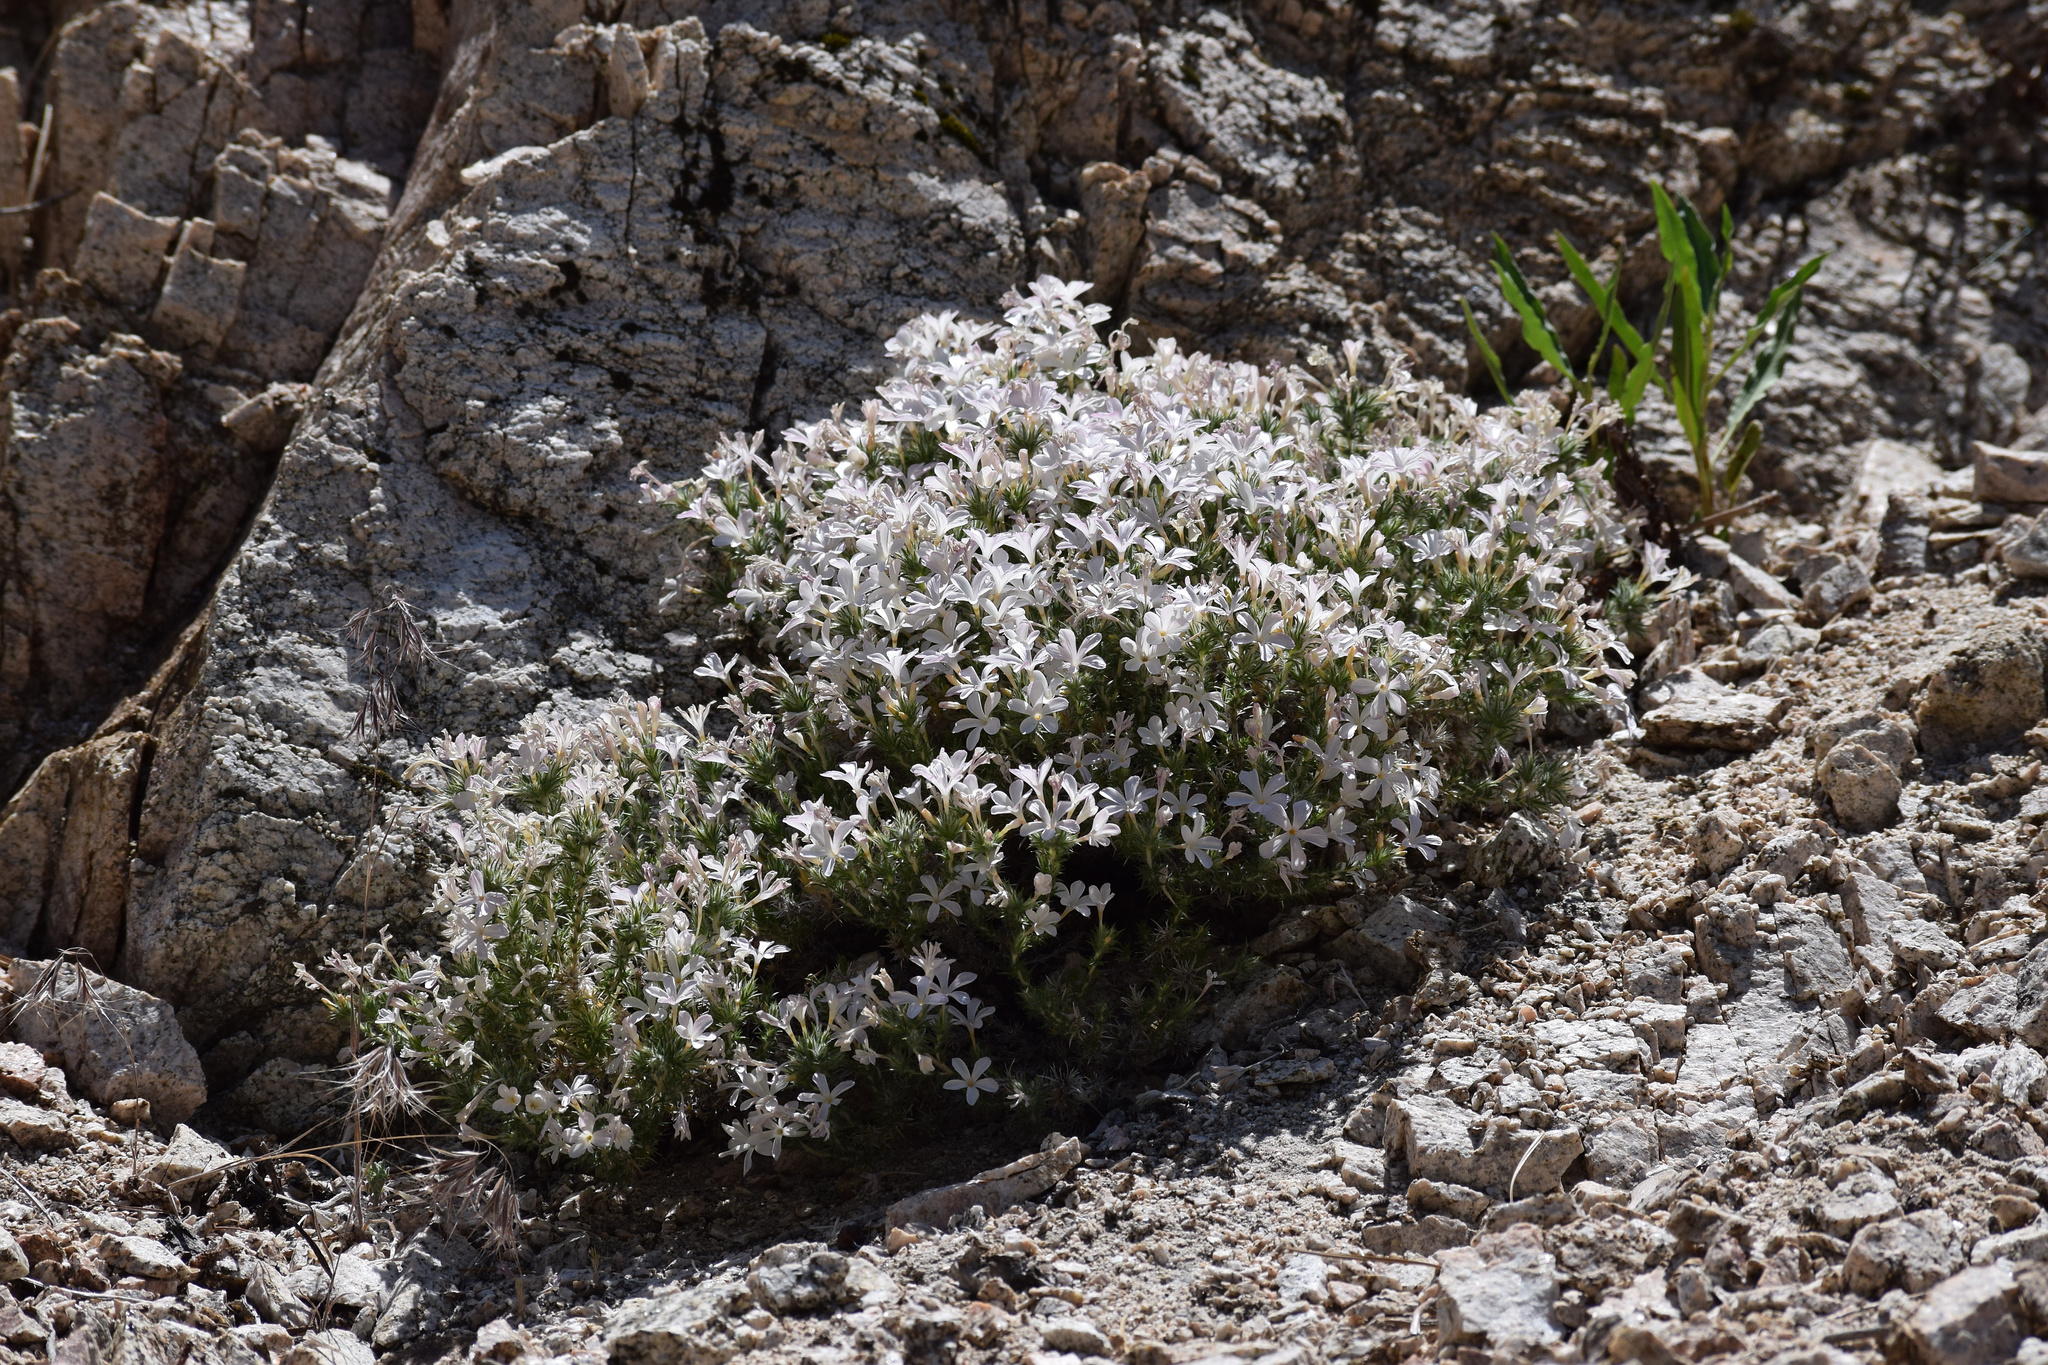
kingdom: Plantae
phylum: Tracheophyta
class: Magnoliopsida
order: Ericales
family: Polemoniaceae
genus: Linanthus
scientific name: Linanthus pungens
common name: Granite prickly phlox
